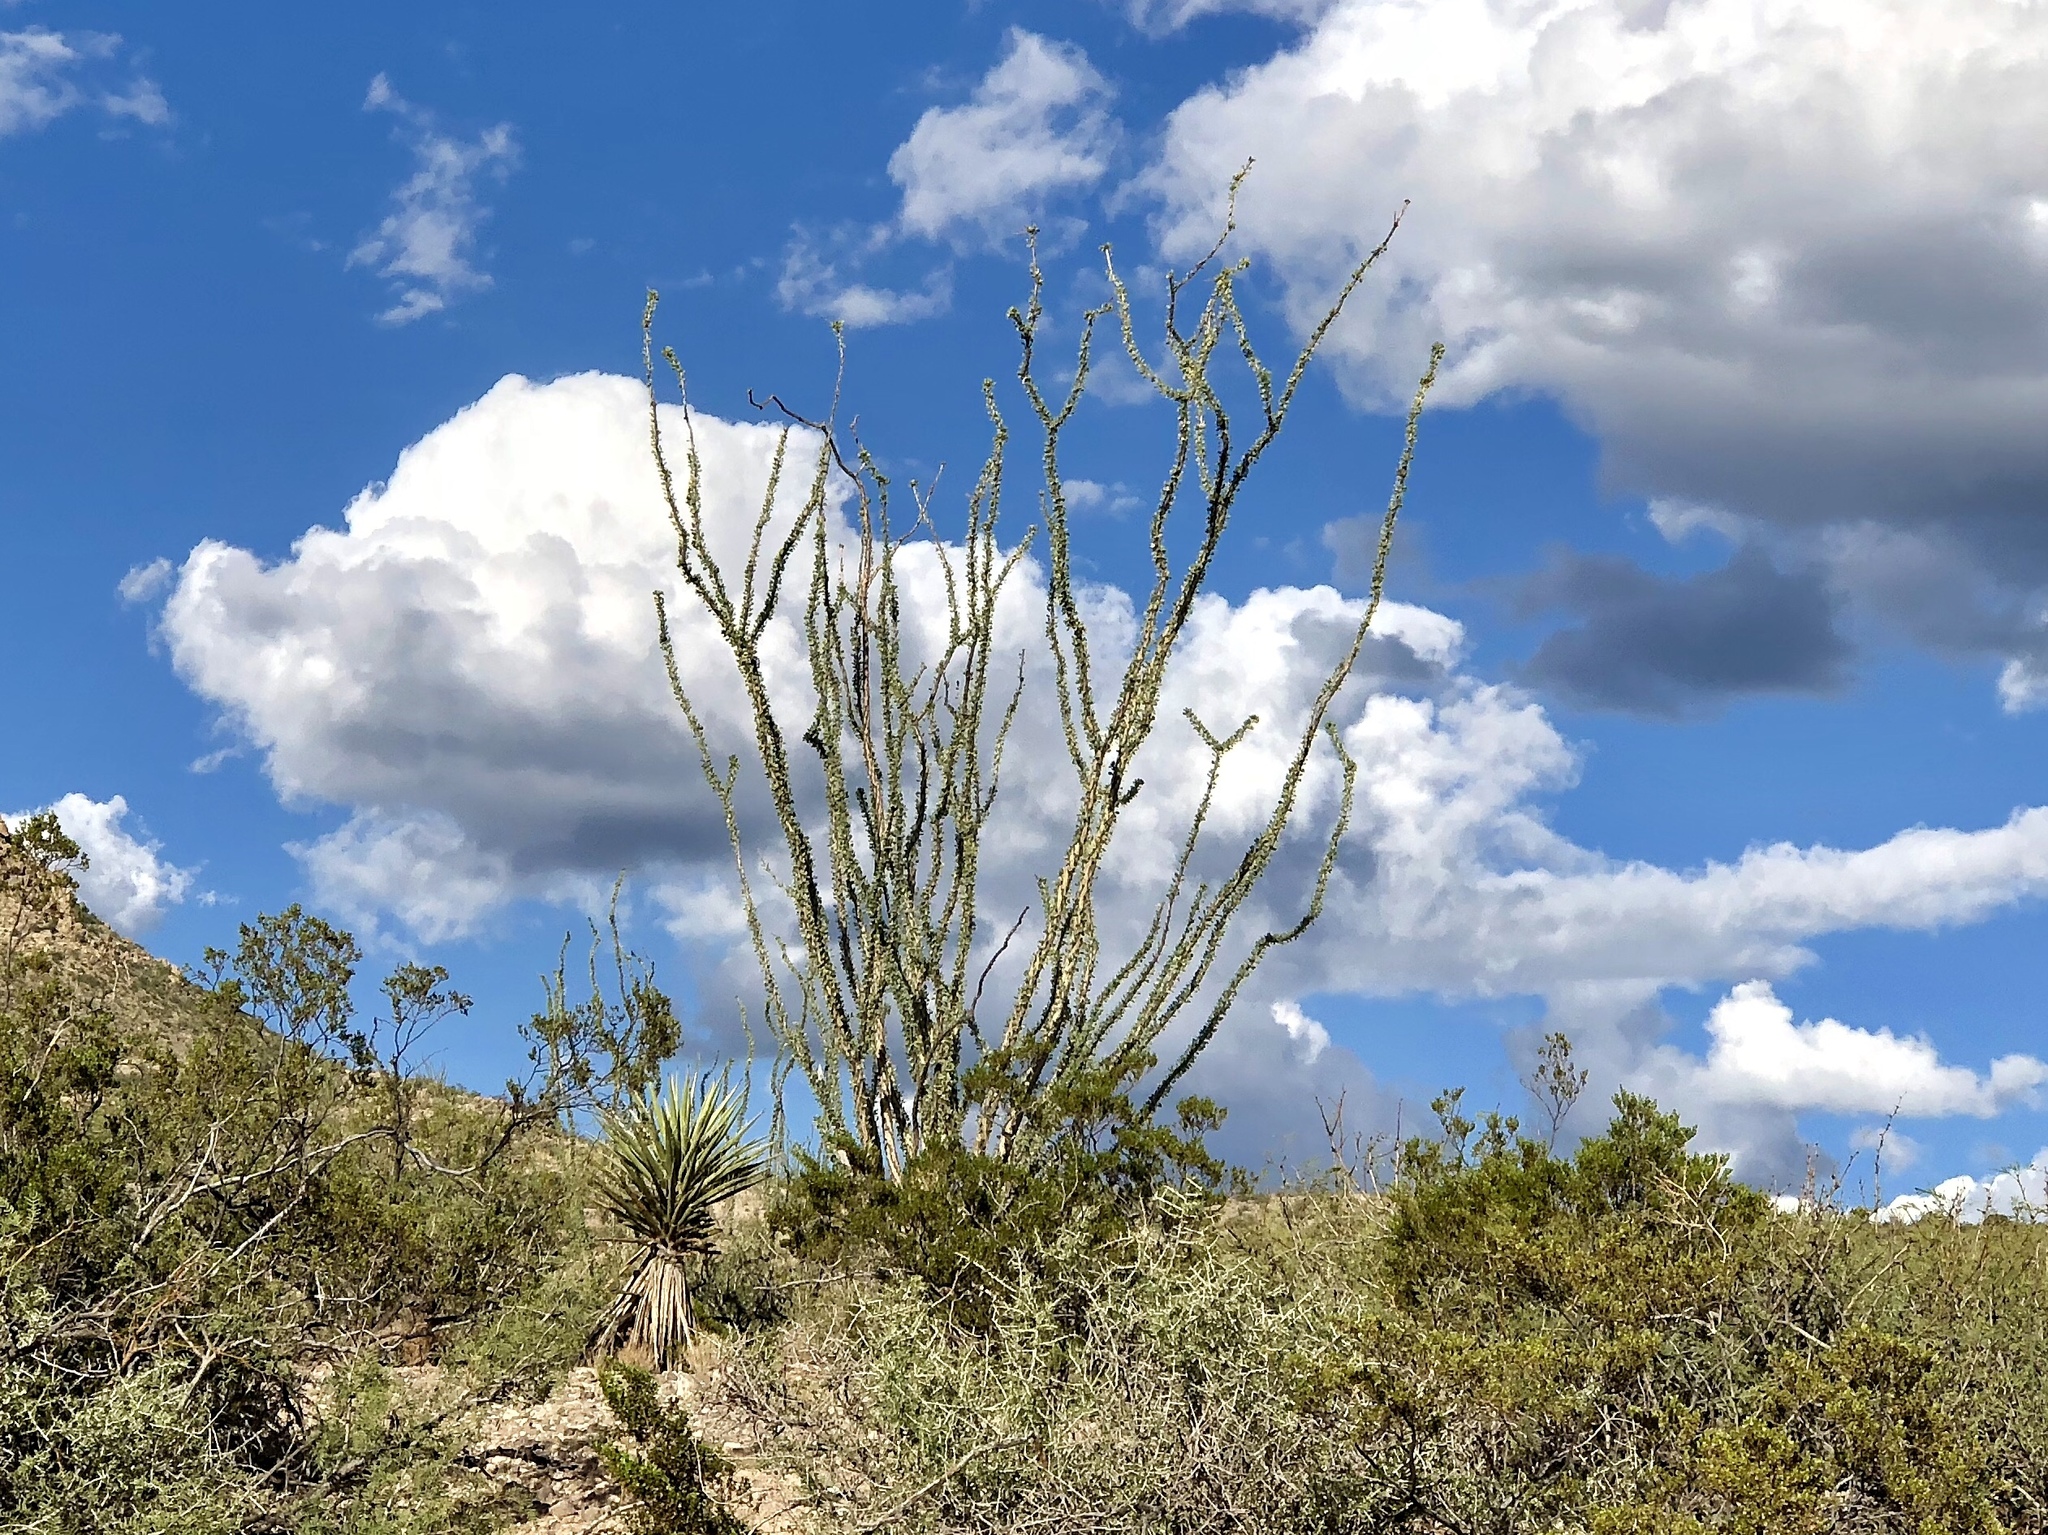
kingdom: Plantae
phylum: Tracheophyta
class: Magnoliopsida
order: Ericales
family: Fouquieriaceae
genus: Fouquieria
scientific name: Fouquieria splendens
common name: Vine-cactus
